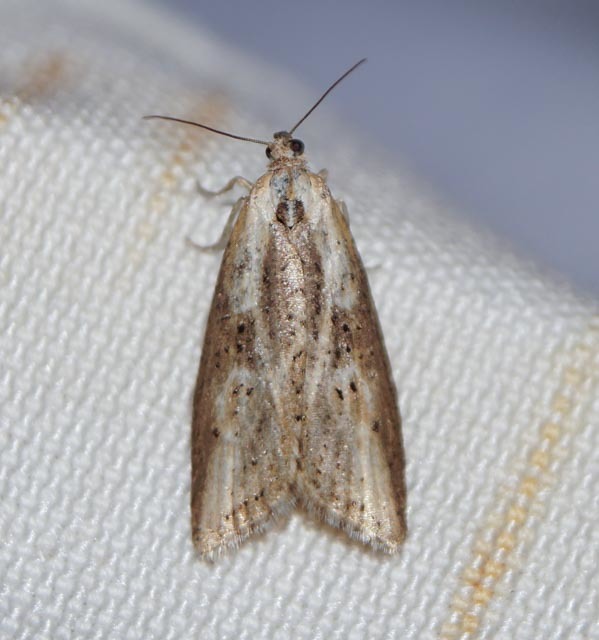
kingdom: Animalia
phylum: Arthropoda
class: Insecta
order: Lepidoptera
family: Tortricidae
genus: Doloploca
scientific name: Doloploca punctulana
